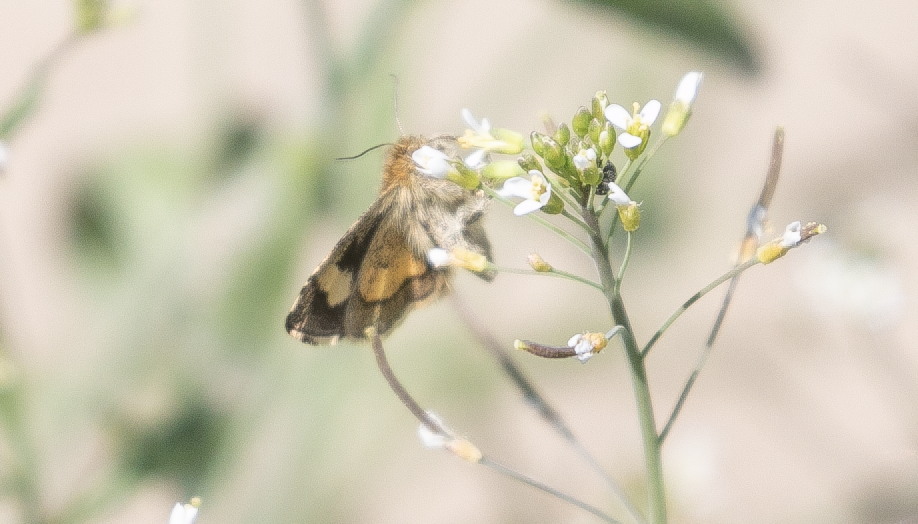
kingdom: Animalia
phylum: Arthropoda
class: Insecta
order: Lepidoptera
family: Noctuidae
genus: Panemeria
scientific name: Panemeria tenebrata
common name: Small yellow underwing
